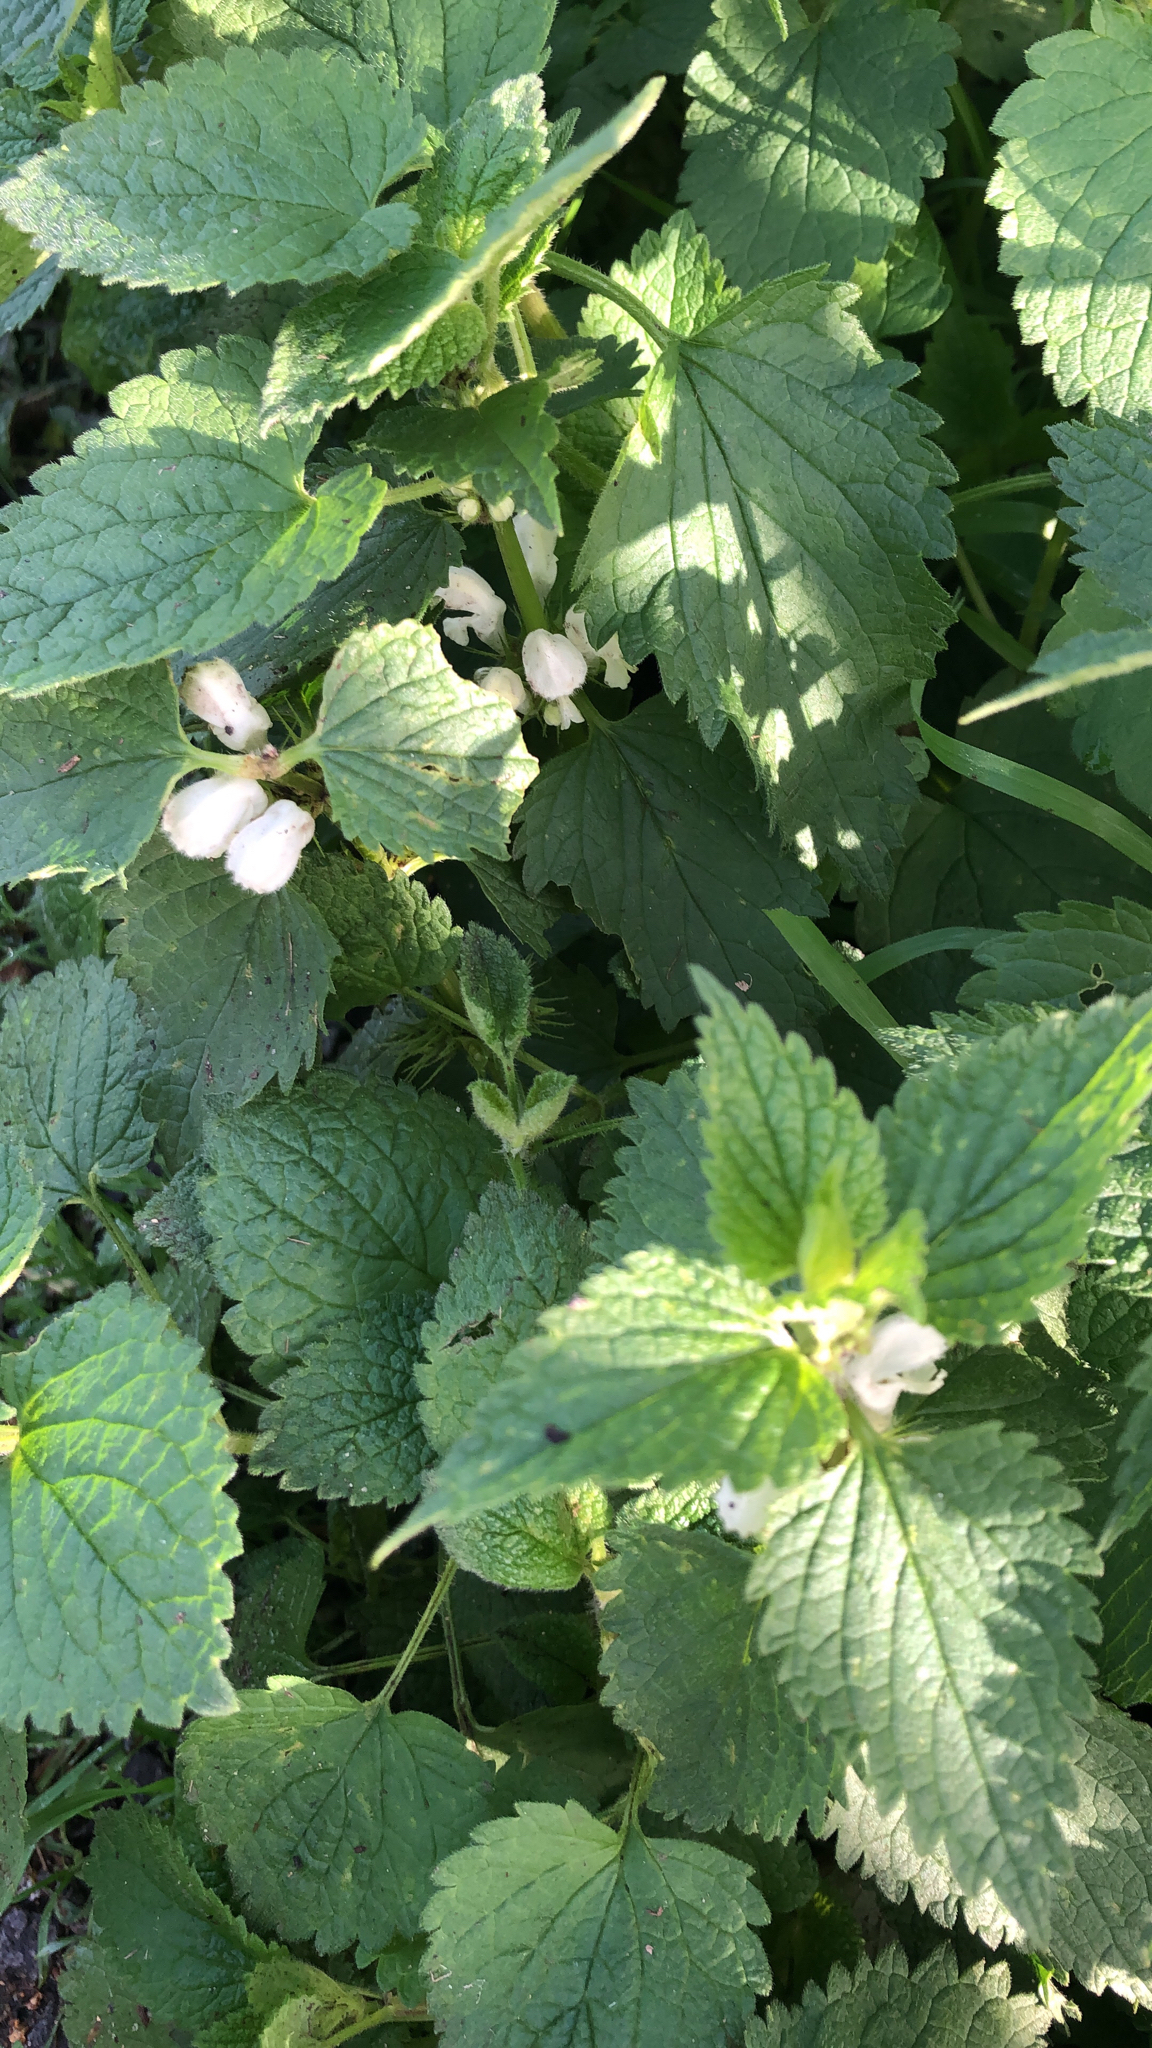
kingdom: Plantae
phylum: Tracheophyta
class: Magnoliopsida
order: Lamiales
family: Lamiaceae
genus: Lamium
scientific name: Lamium album
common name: White dead-nettle
